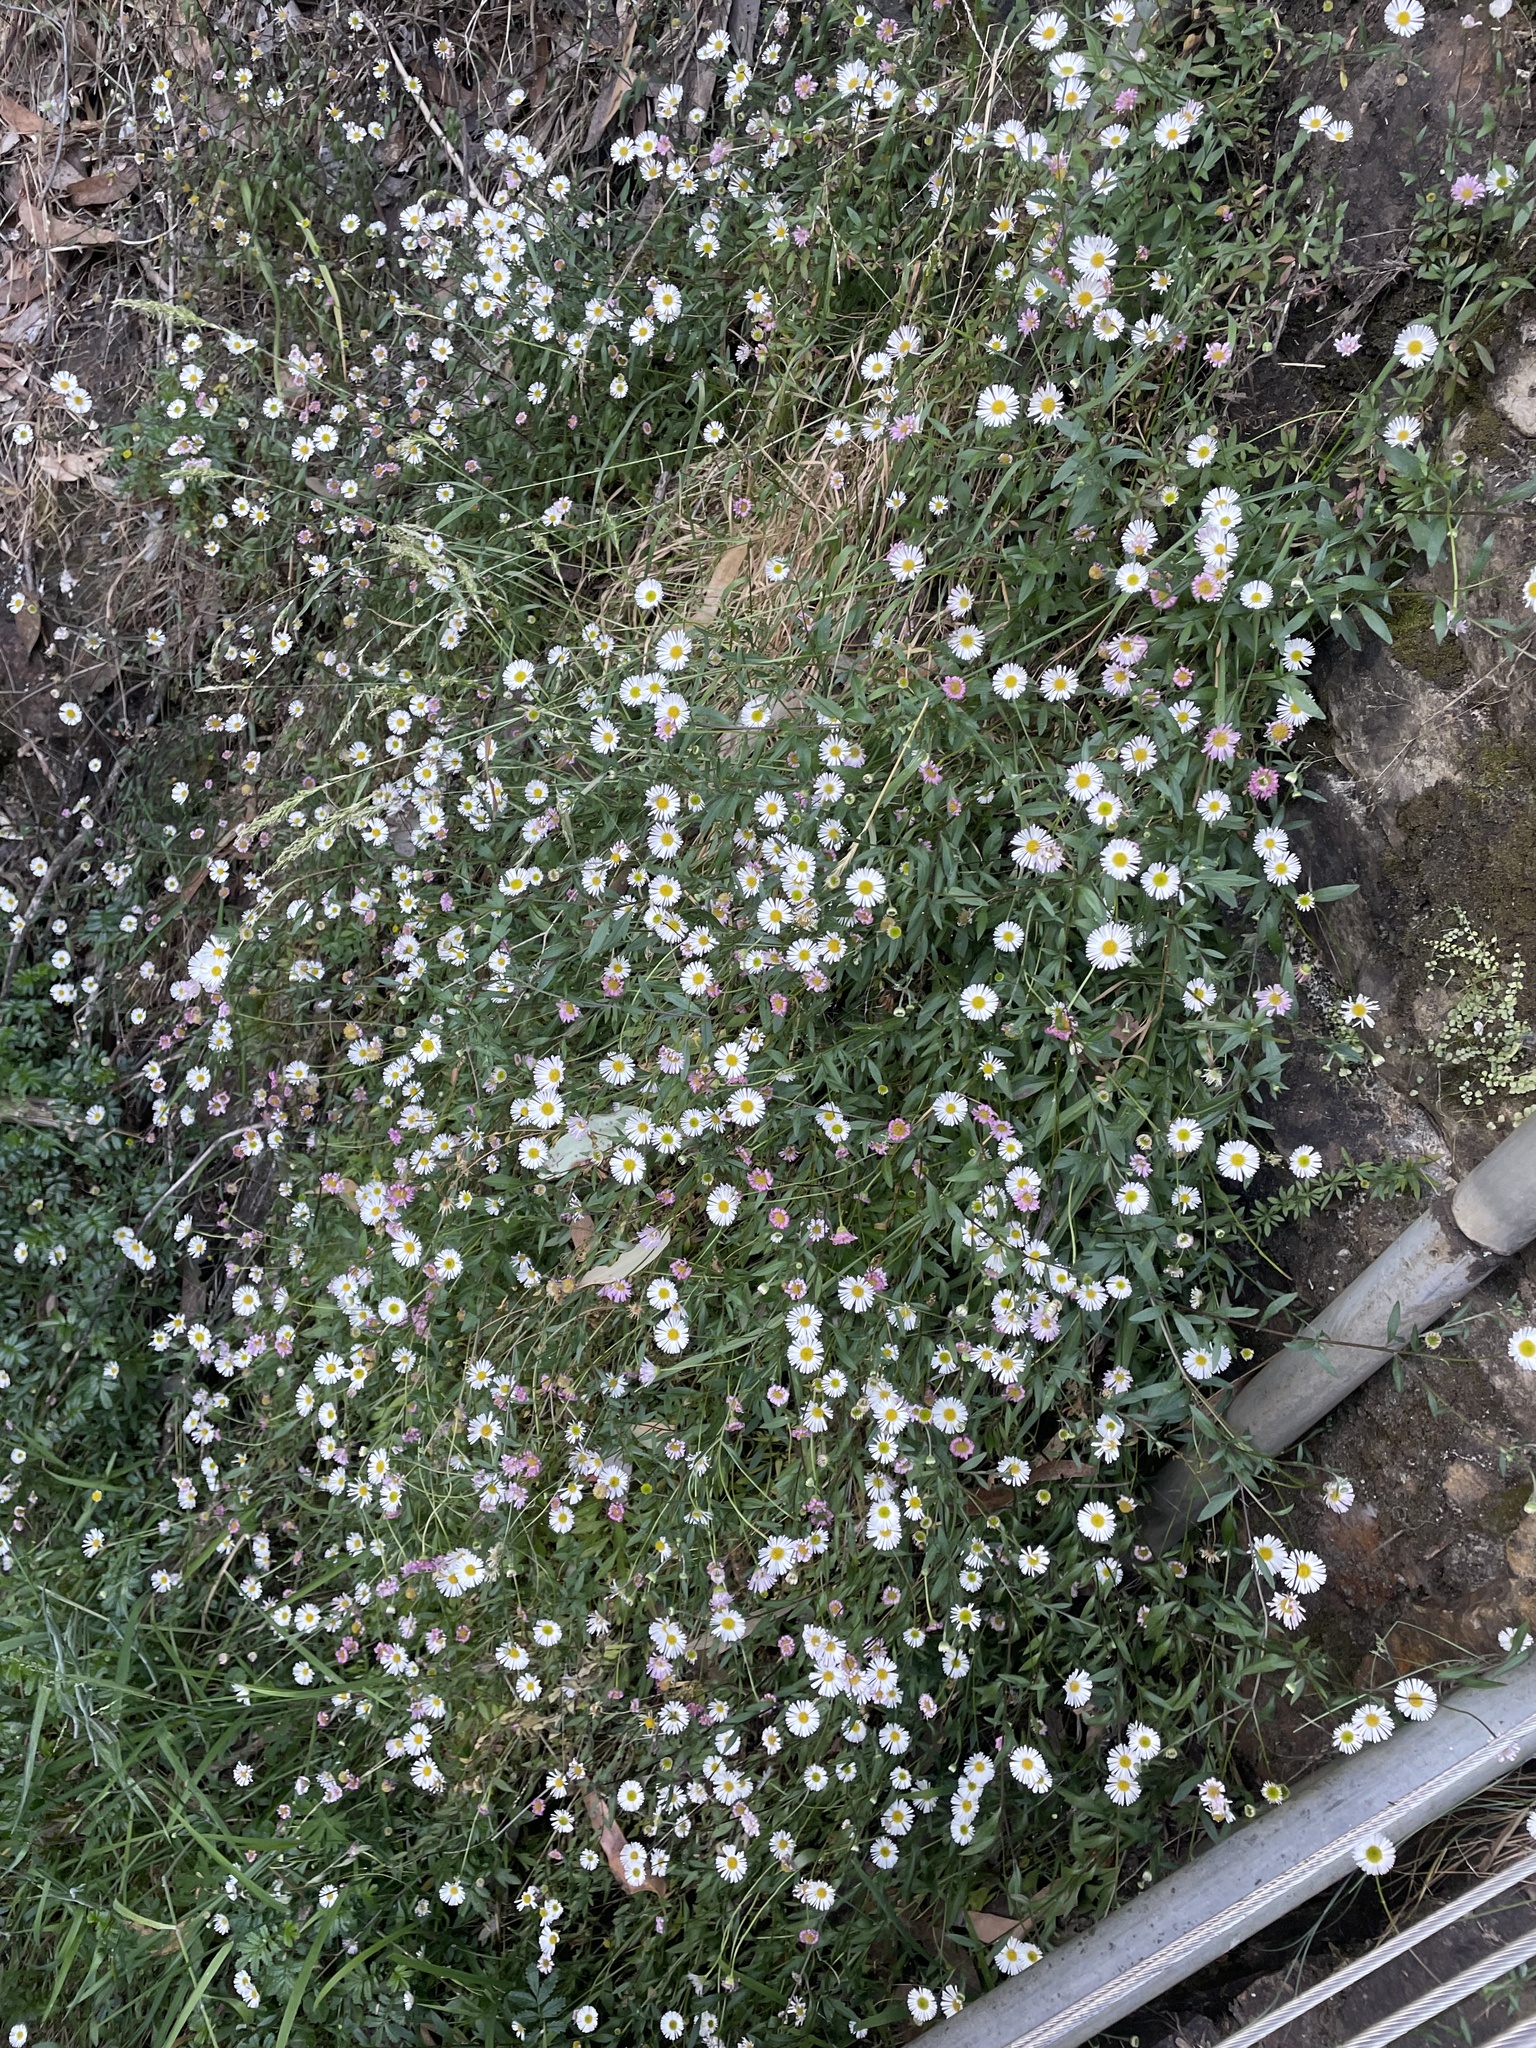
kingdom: Plantae
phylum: Tracheophyta
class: Magnoliopsida
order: Asterales
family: Asteraceae
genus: Erigeron
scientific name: Erigeron karvinskianus
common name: Mexican fleabane
